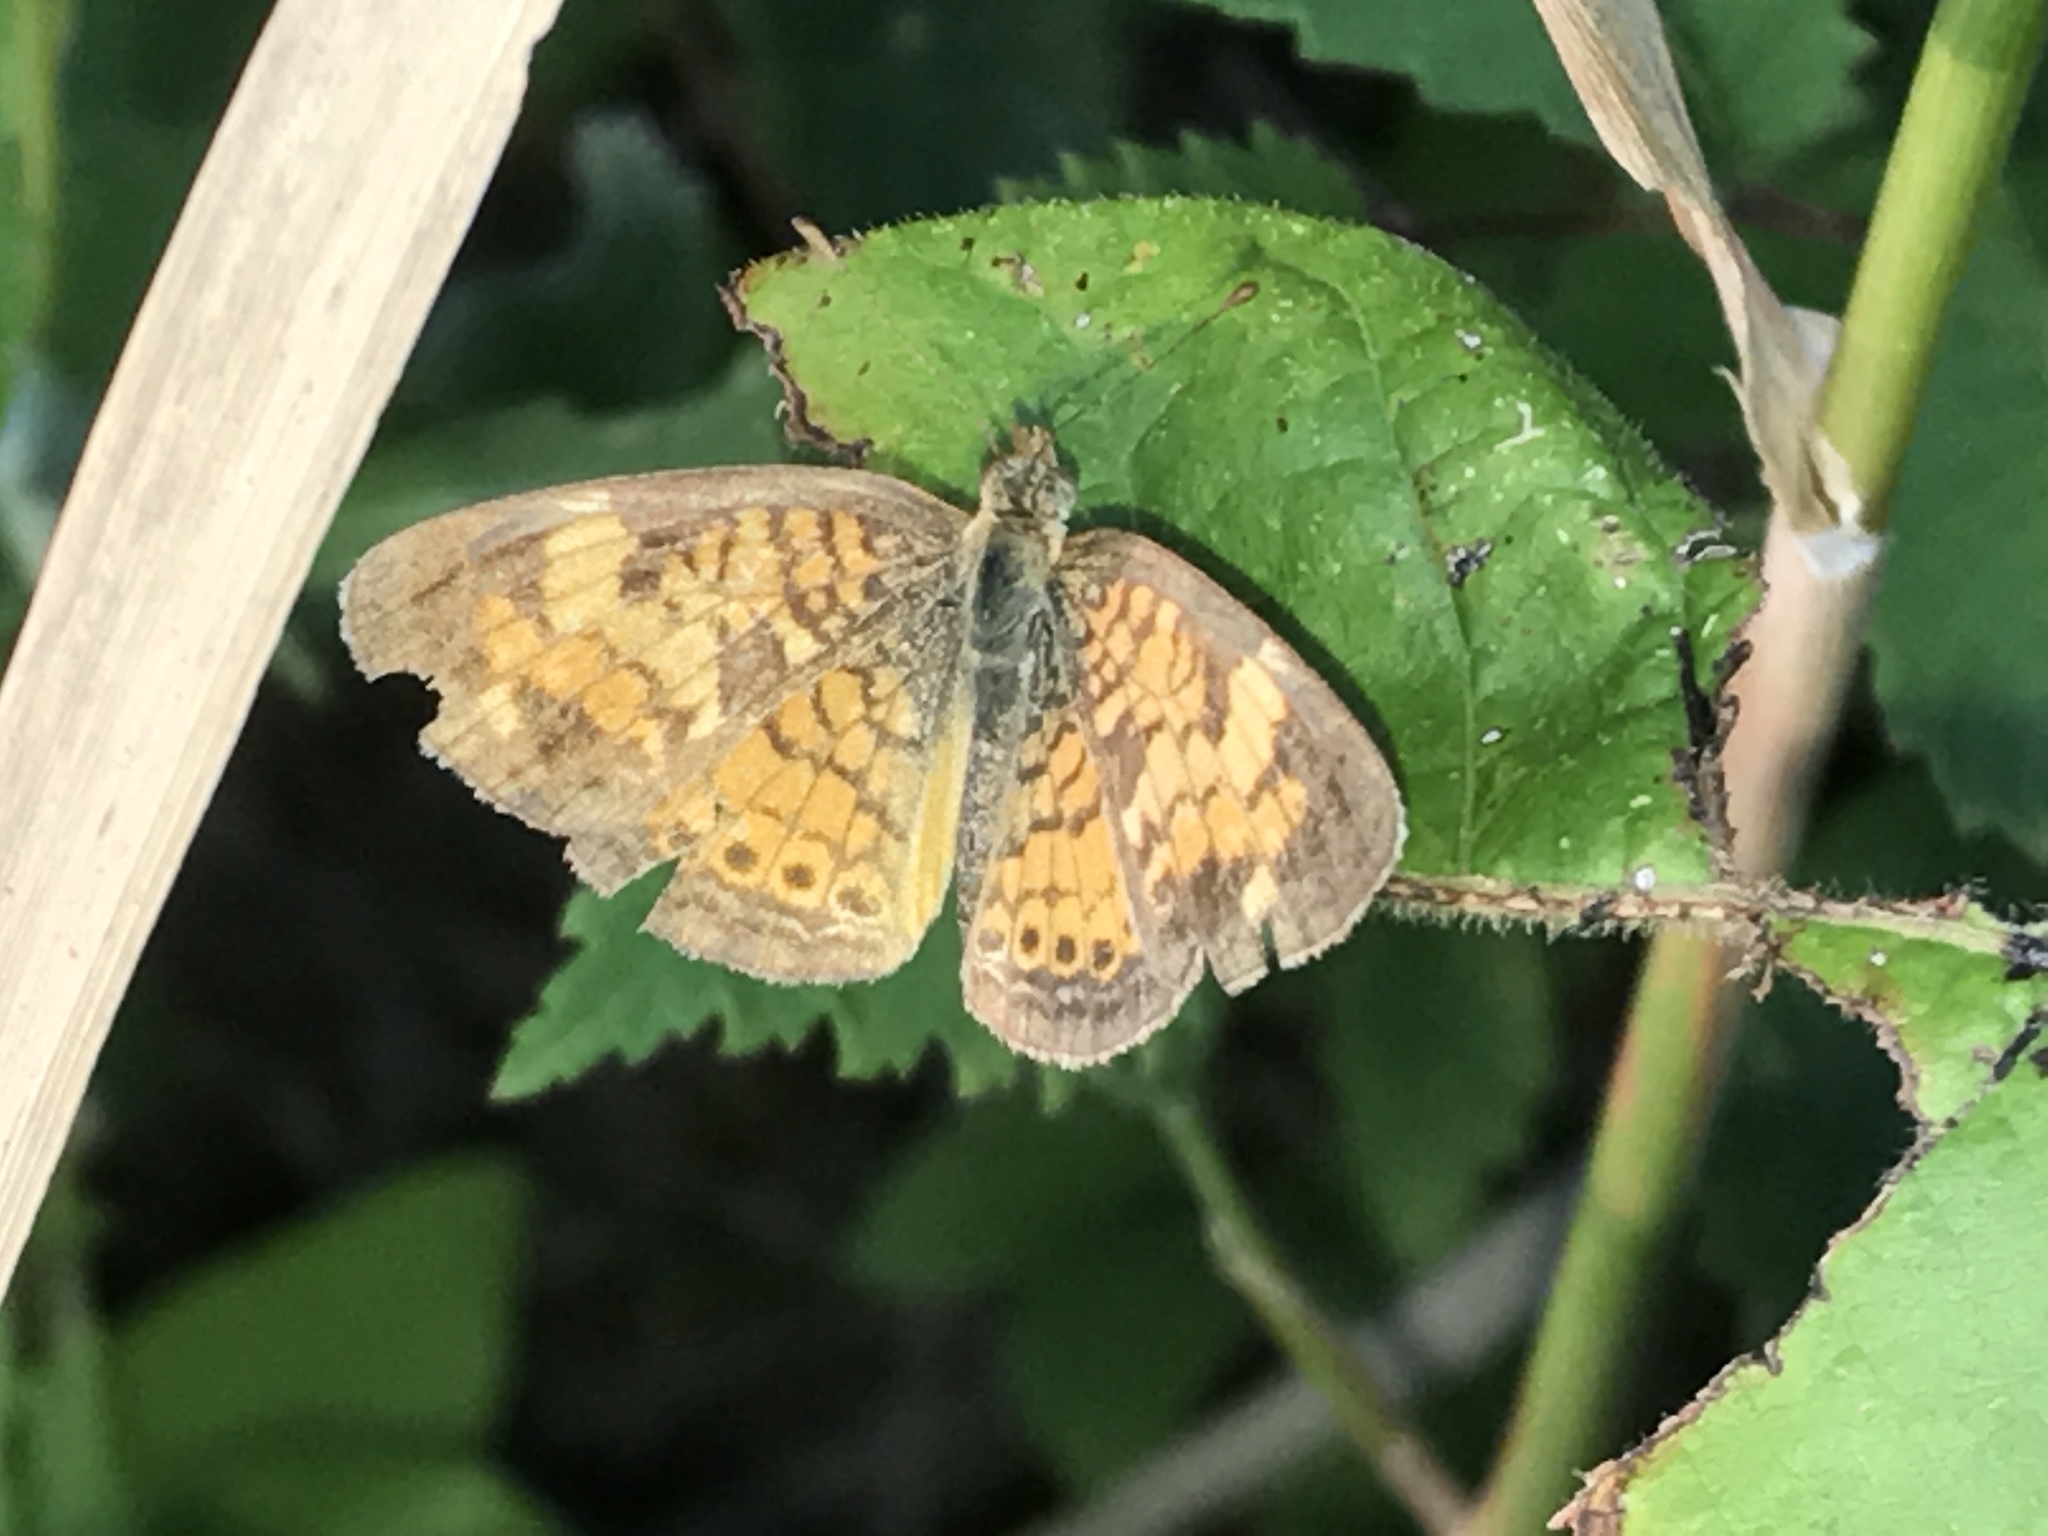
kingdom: Animalia
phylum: Arthropoda
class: Insecta
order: Lepidoptera
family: Nymphalidae
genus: Phyciodes
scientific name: Phyciodes tharos
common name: Pearl crescent
